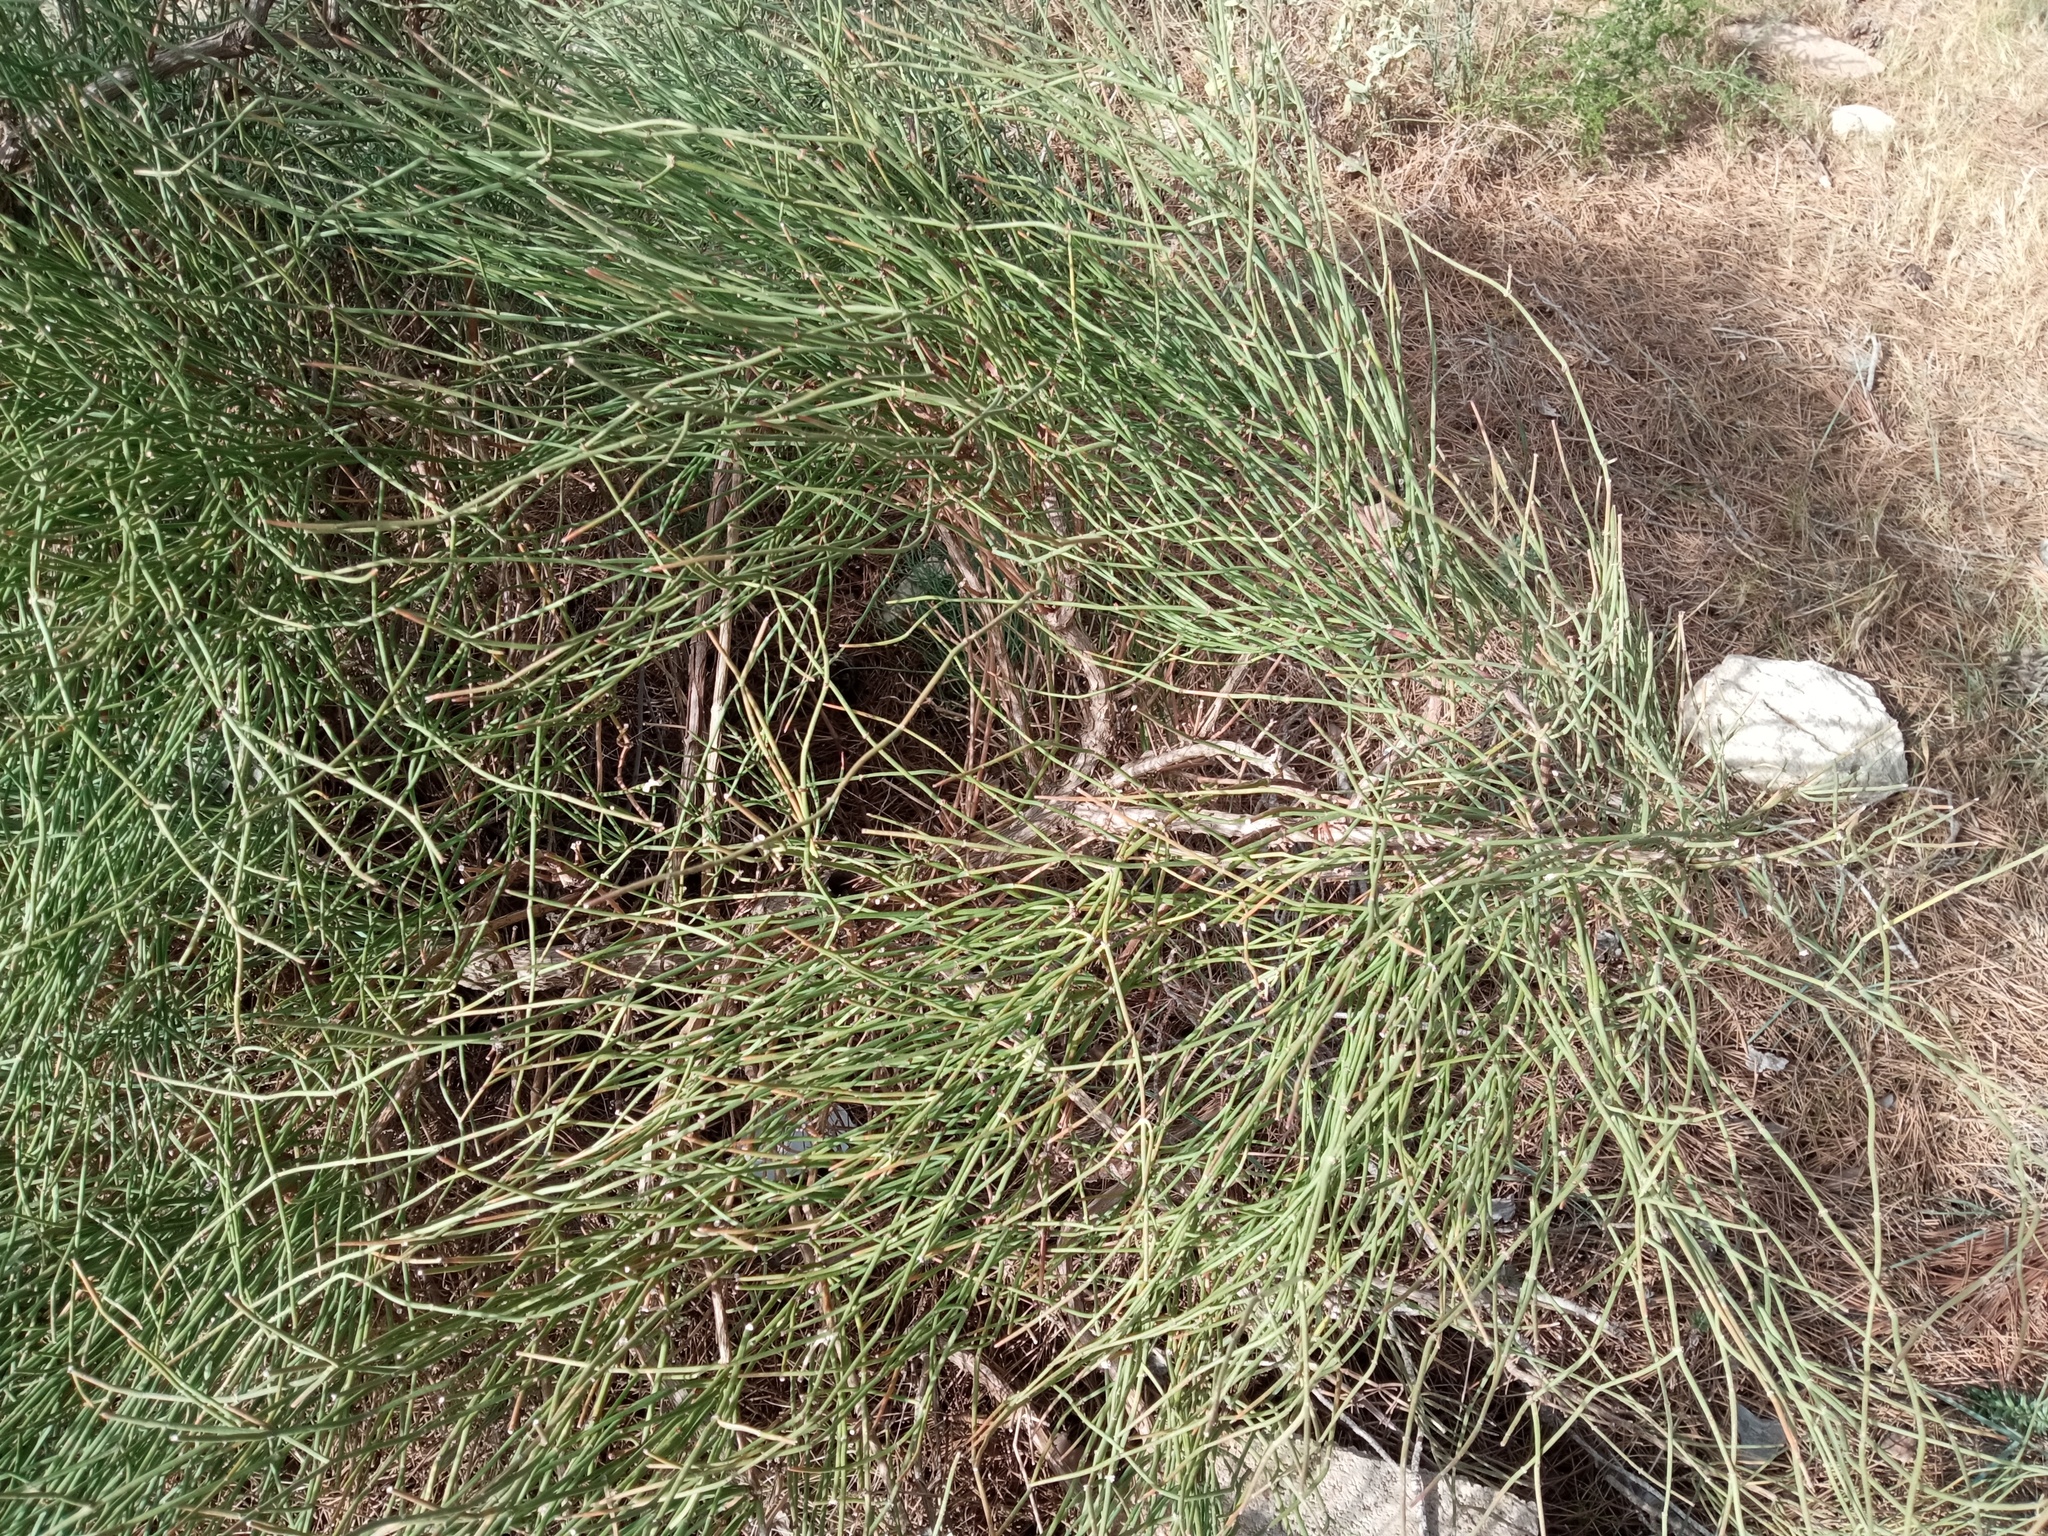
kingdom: Plantae
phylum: Tracheophyta
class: Gnetopsida
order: Ephedrales
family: Ephedraceae
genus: Ephedra
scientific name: Ephedra fragilis
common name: Joint pine
